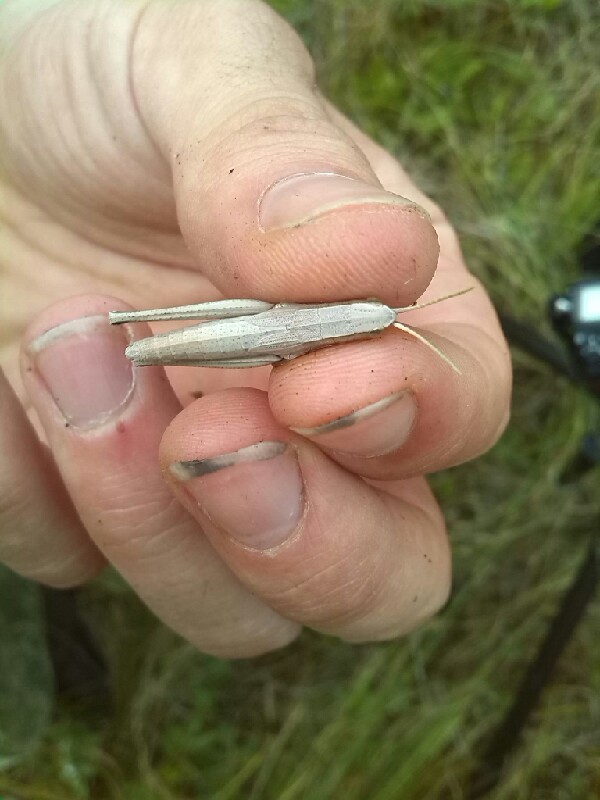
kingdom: Animalia
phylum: Arthropoda
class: Insecta
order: Orthoptera
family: Acrididae
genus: Chrysochraon
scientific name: Chrysochraon dispar
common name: Large gold grasshopper
